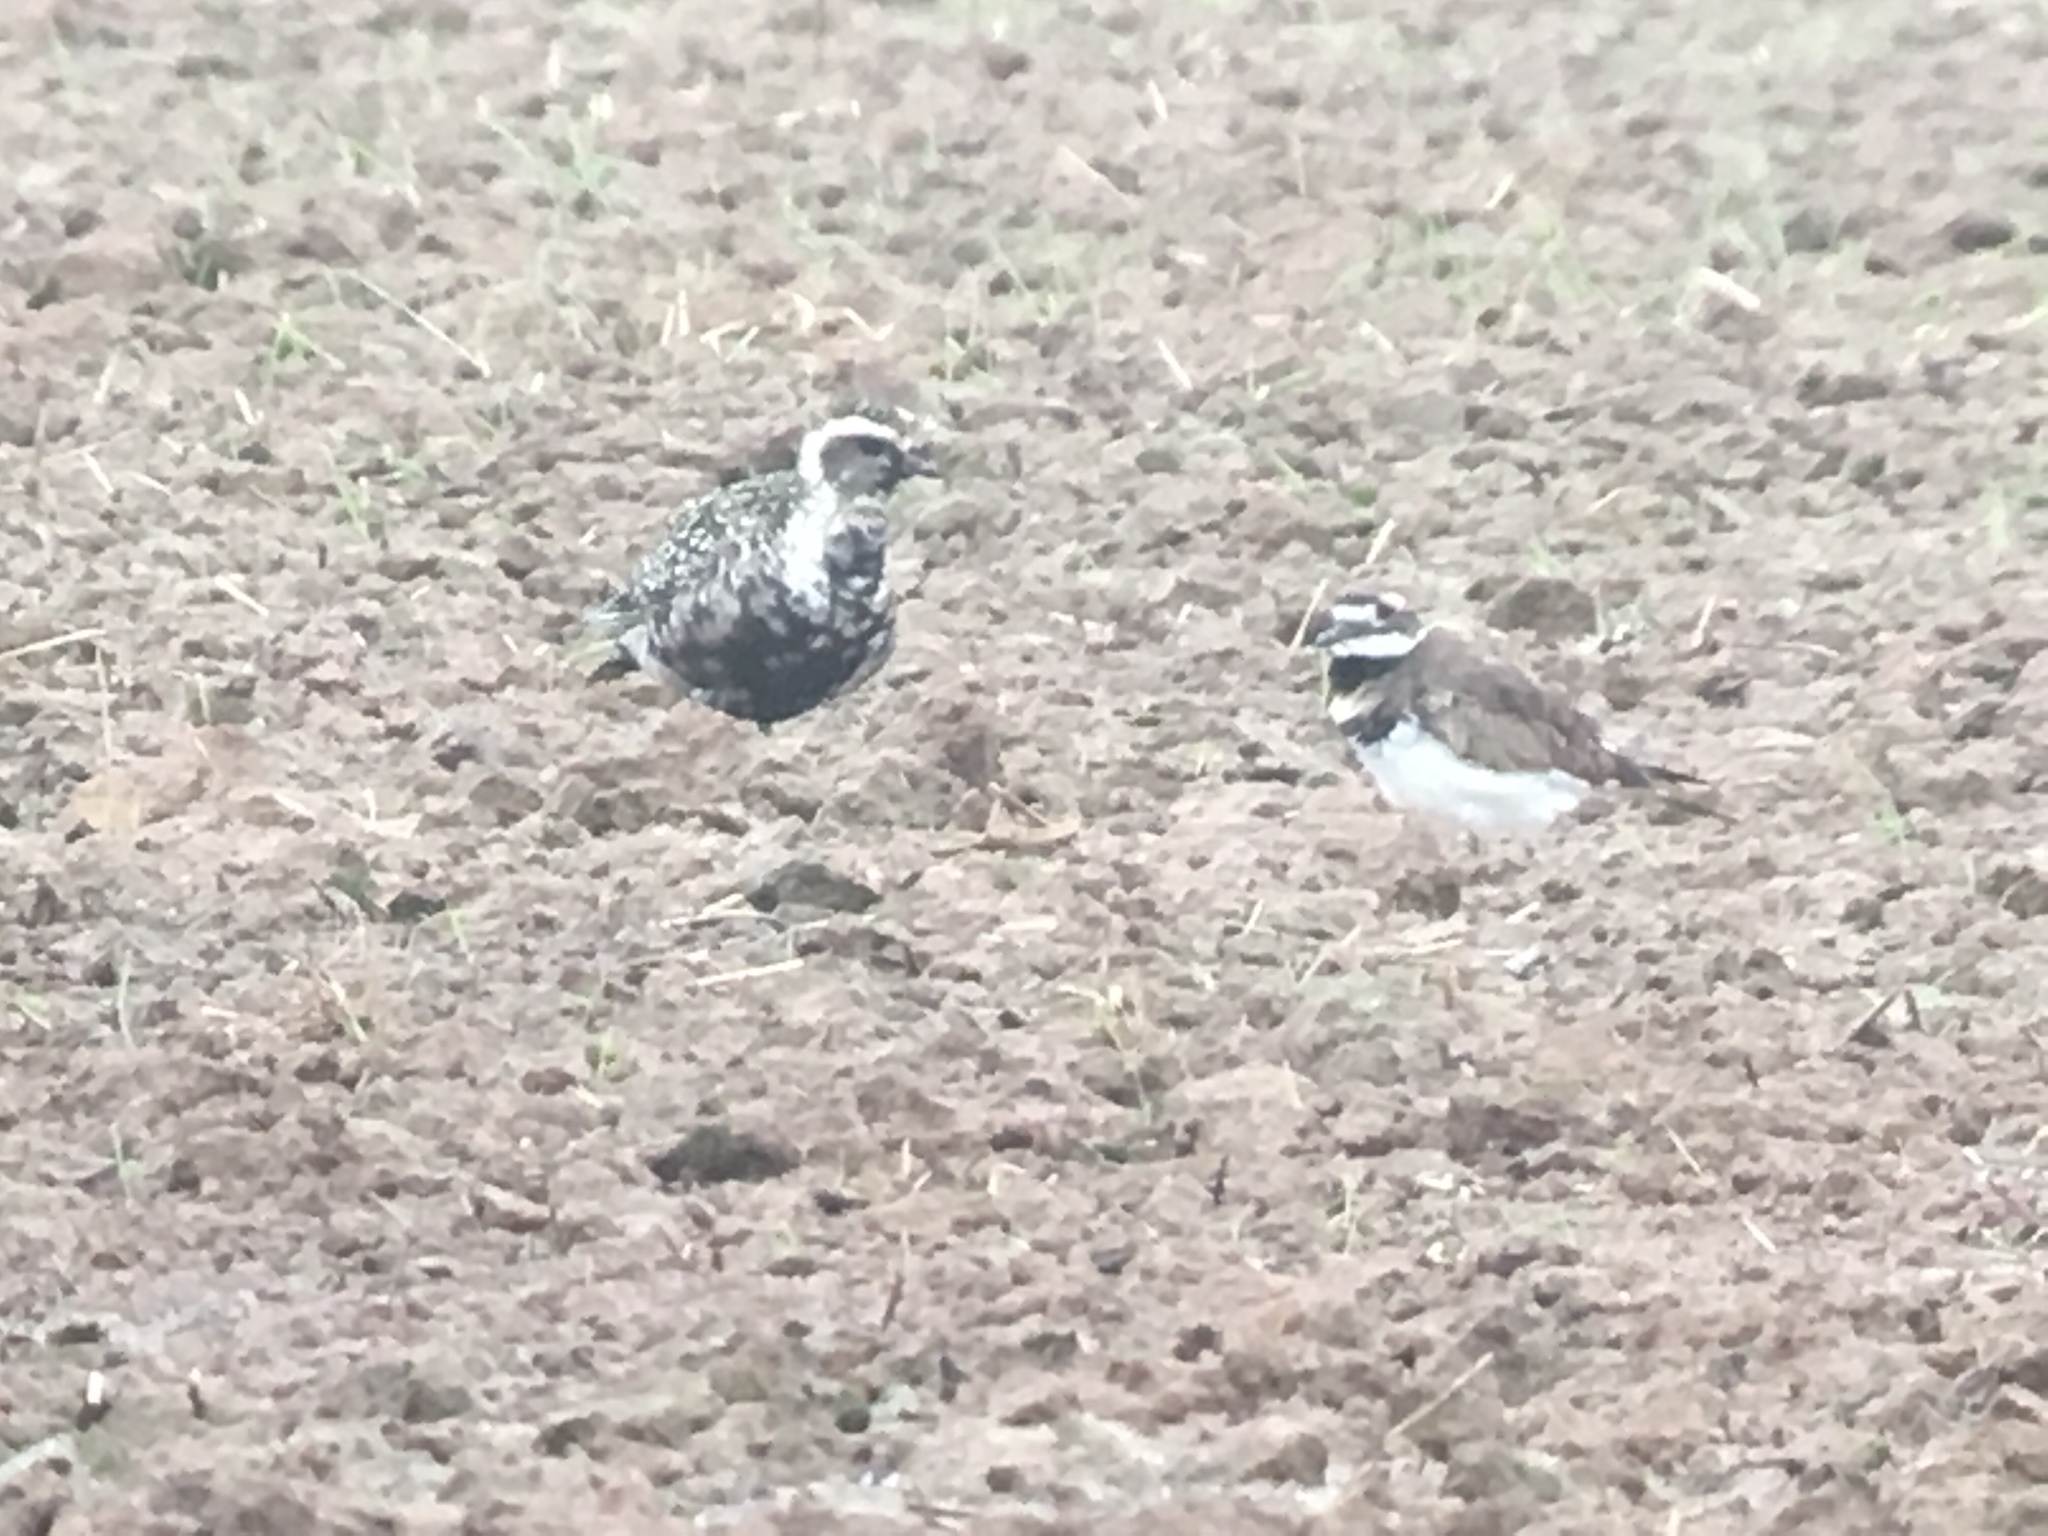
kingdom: Animalia
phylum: Chordata
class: Aves
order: Charadriiformes
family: Charadriidae
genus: Charadrius
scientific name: Charadrius vociferus
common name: Killdeer
